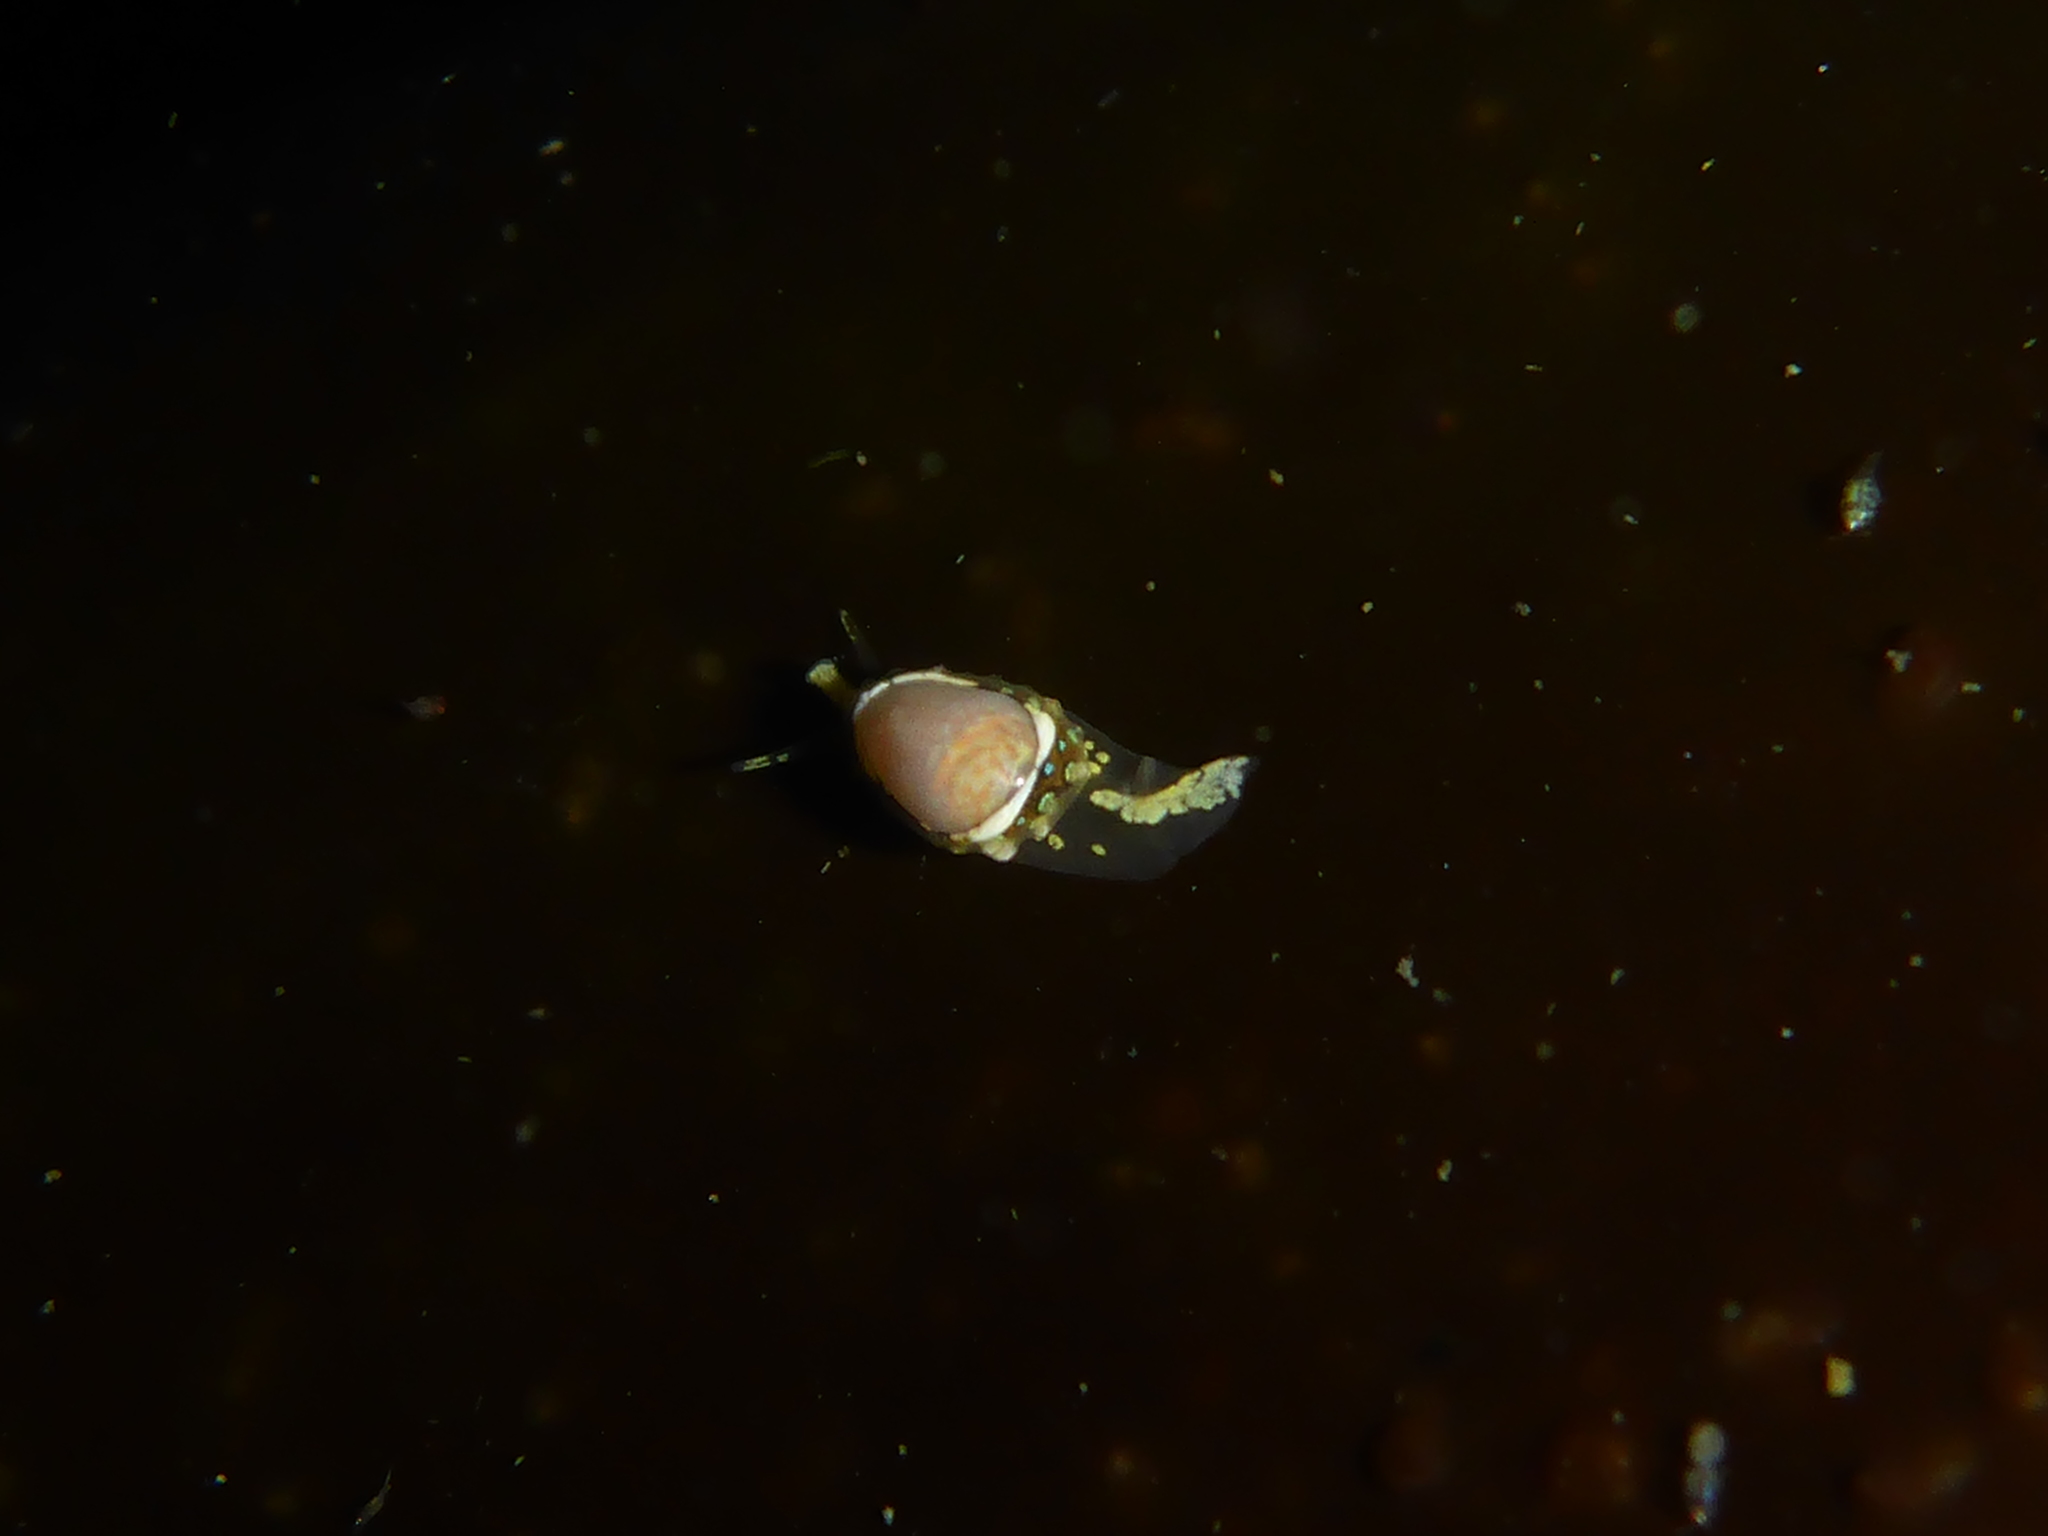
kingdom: Animalia
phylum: Mollusca
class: Gastropoda
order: Neogastropoda
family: Granulinidae
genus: Granulina
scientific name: Granulina margaritula
